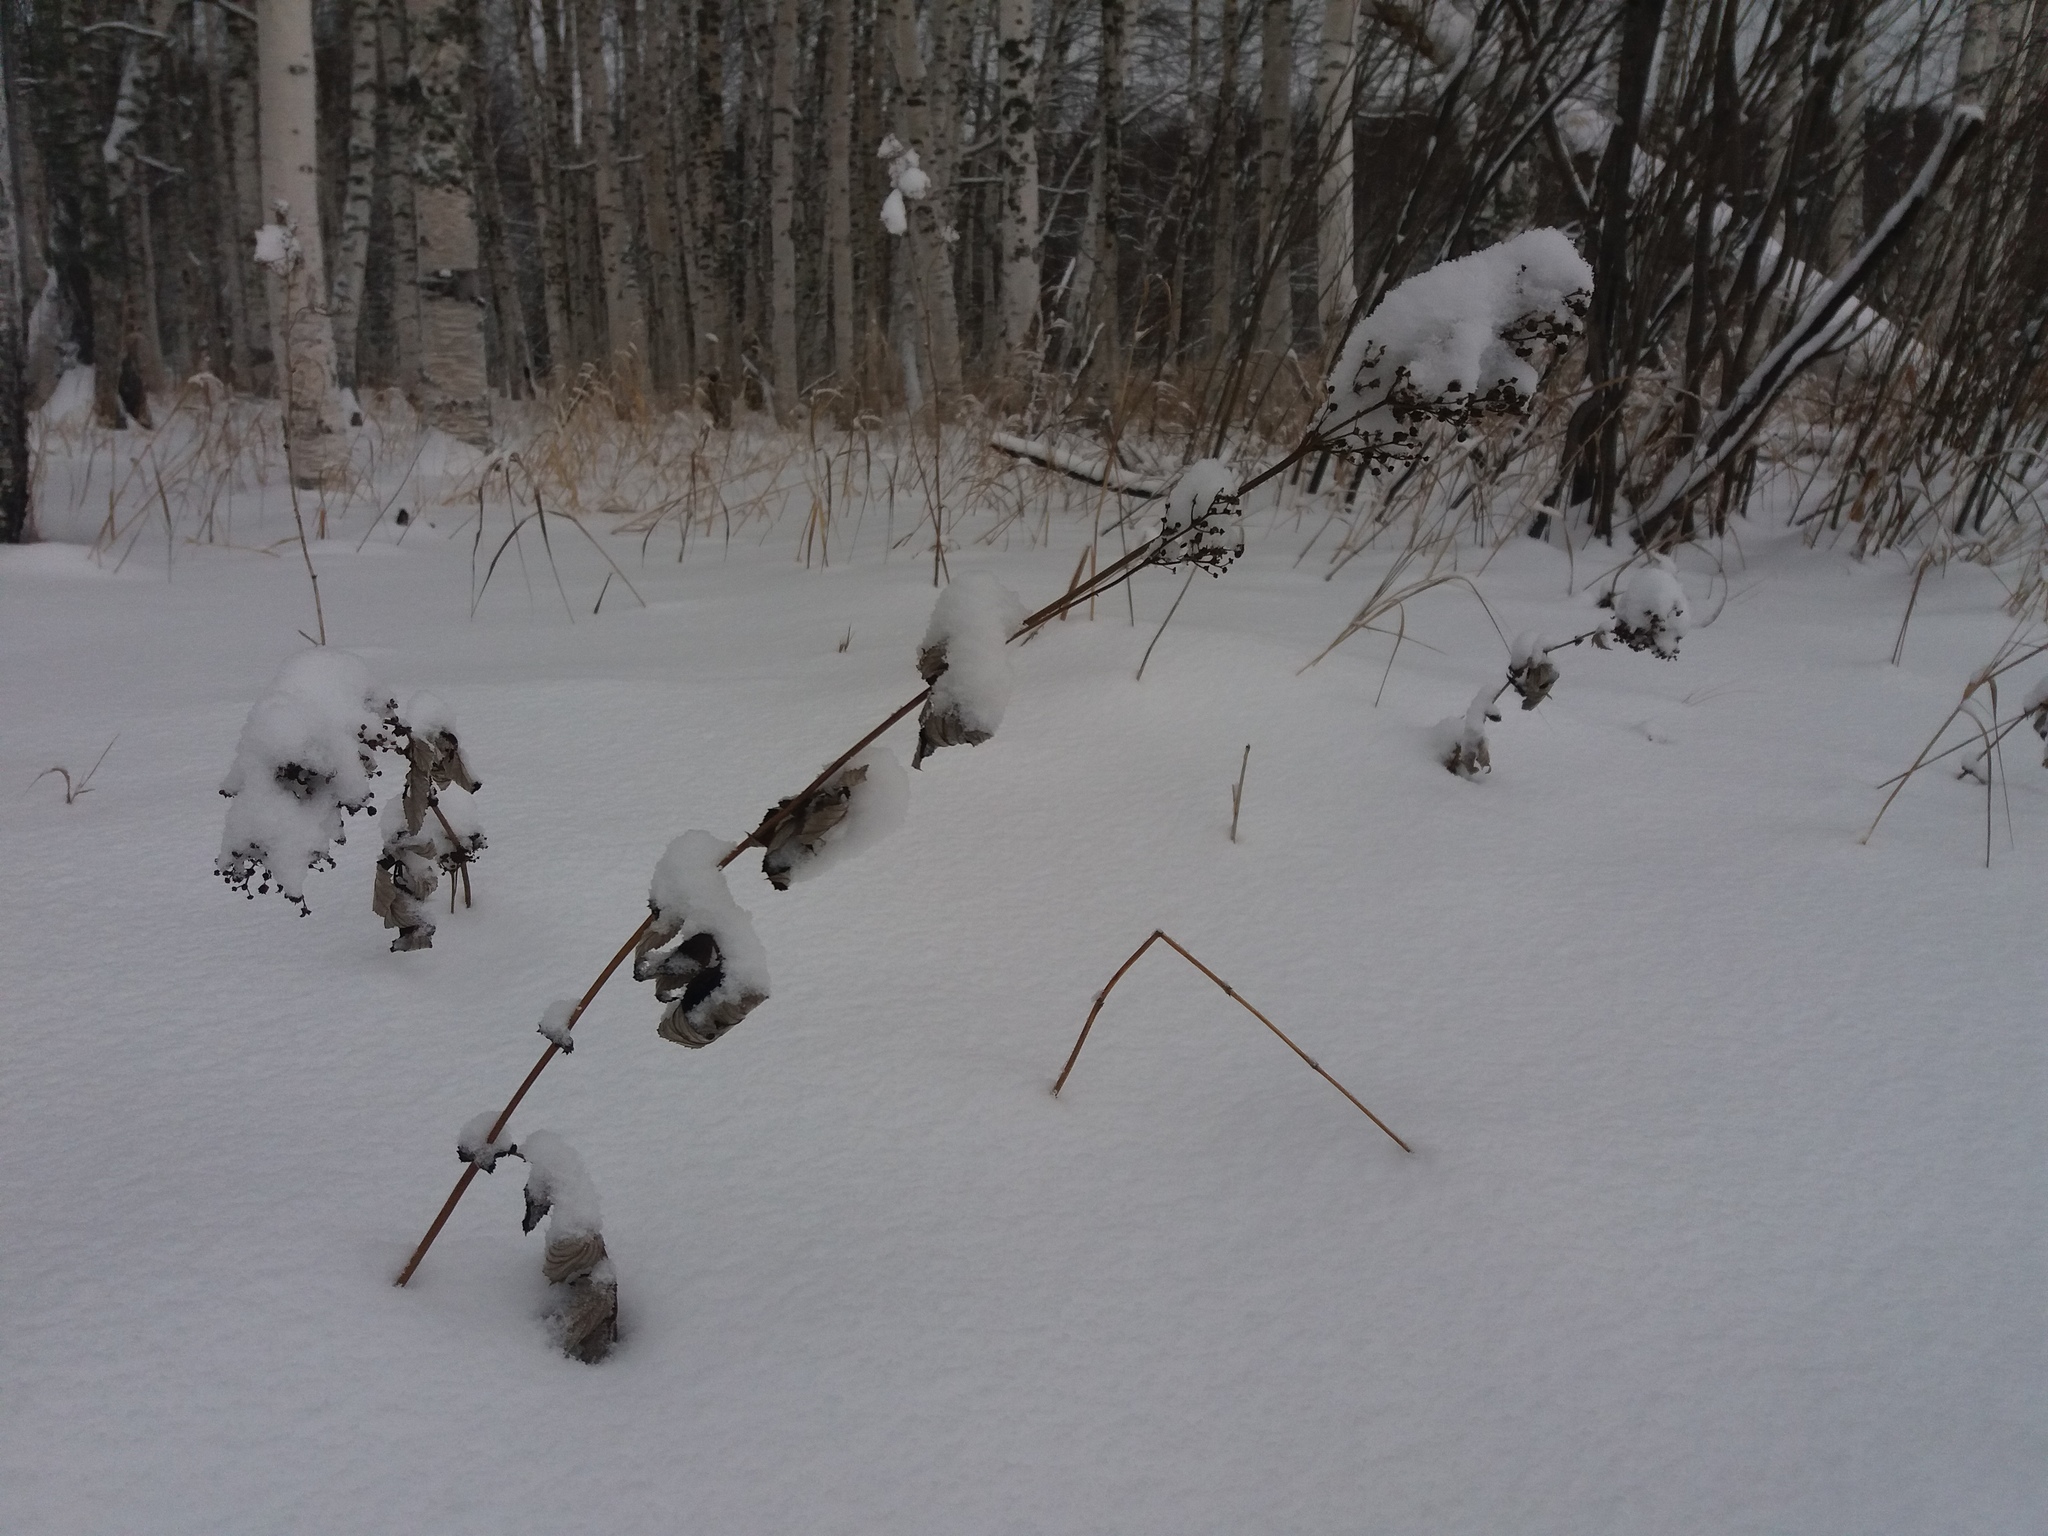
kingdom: Plantae
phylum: Tracheophyta
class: Magnoliopsida
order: Rosales
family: Rosaceae
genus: Filipendula
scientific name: Filipendula ulmaria
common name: Meadowsweet
